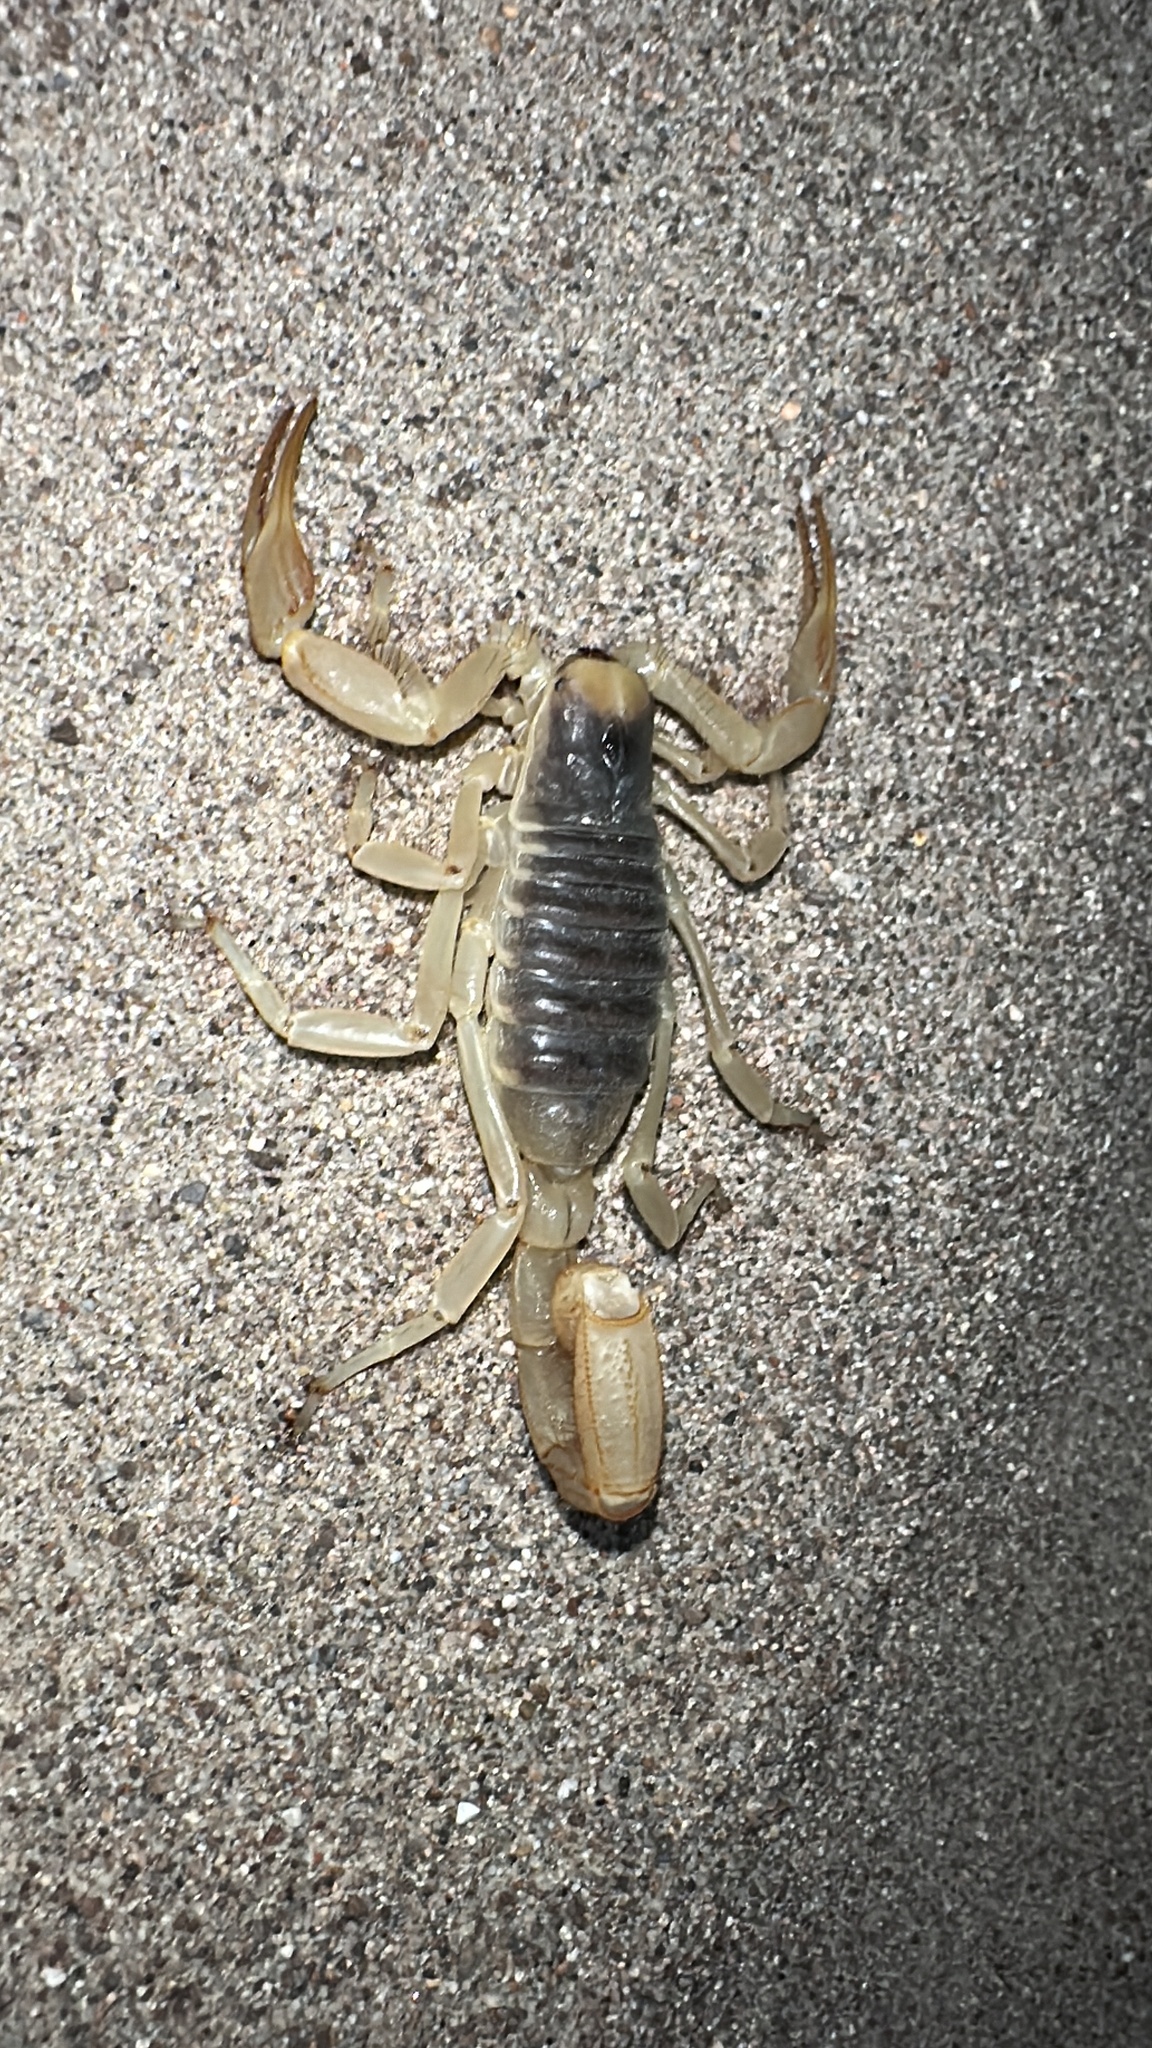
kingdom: Animalia
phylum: Arthropoda
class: Arachnida
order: Scorpiones
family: Hadruridae
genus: Hadrurus
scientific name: Hadrurus arizonensis
